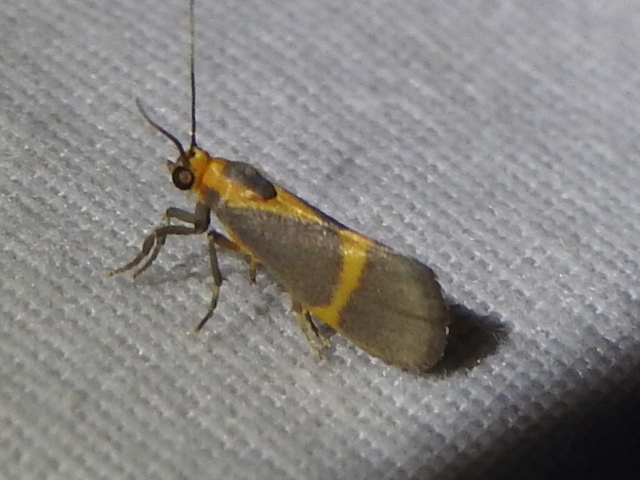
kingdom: Animalia
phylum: Arthropoda
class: Insecta
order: Lepidoptera
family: Erebidae
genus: Cisthene
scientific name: Cisthene tenuifascia
